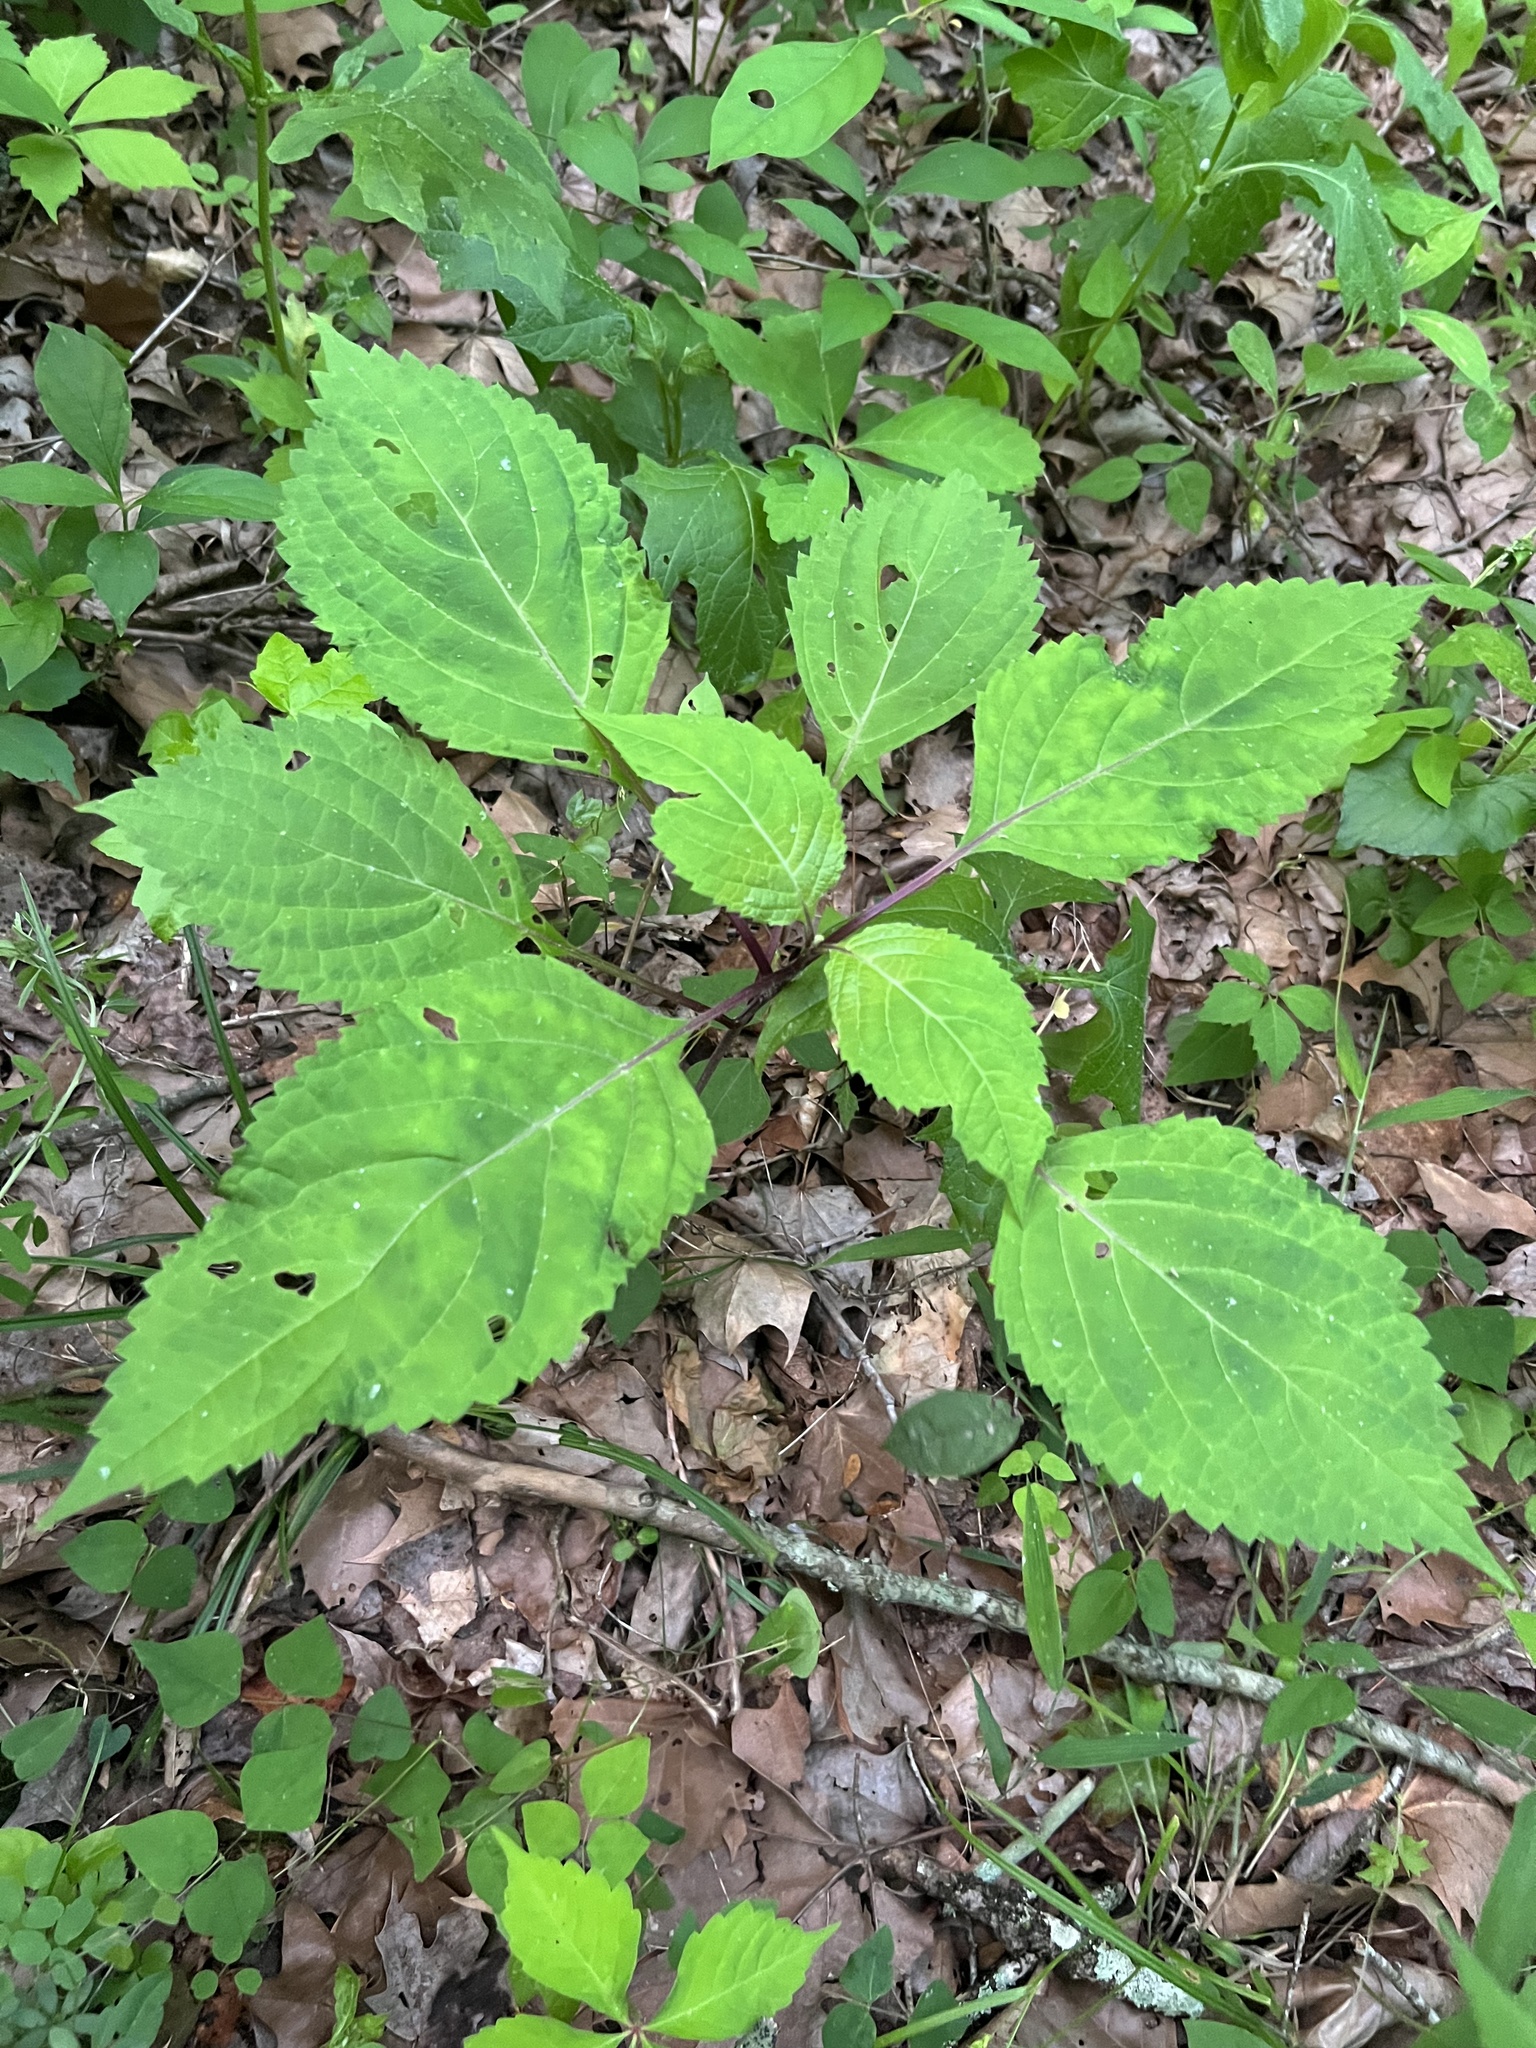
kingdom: Plantae
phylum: Tracheophyta
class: Magnoliopsida
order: Lamiales
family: Lamiaceae
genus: Collinsonia
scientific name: Collinsonia canadensis
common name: Northern horsebalm
